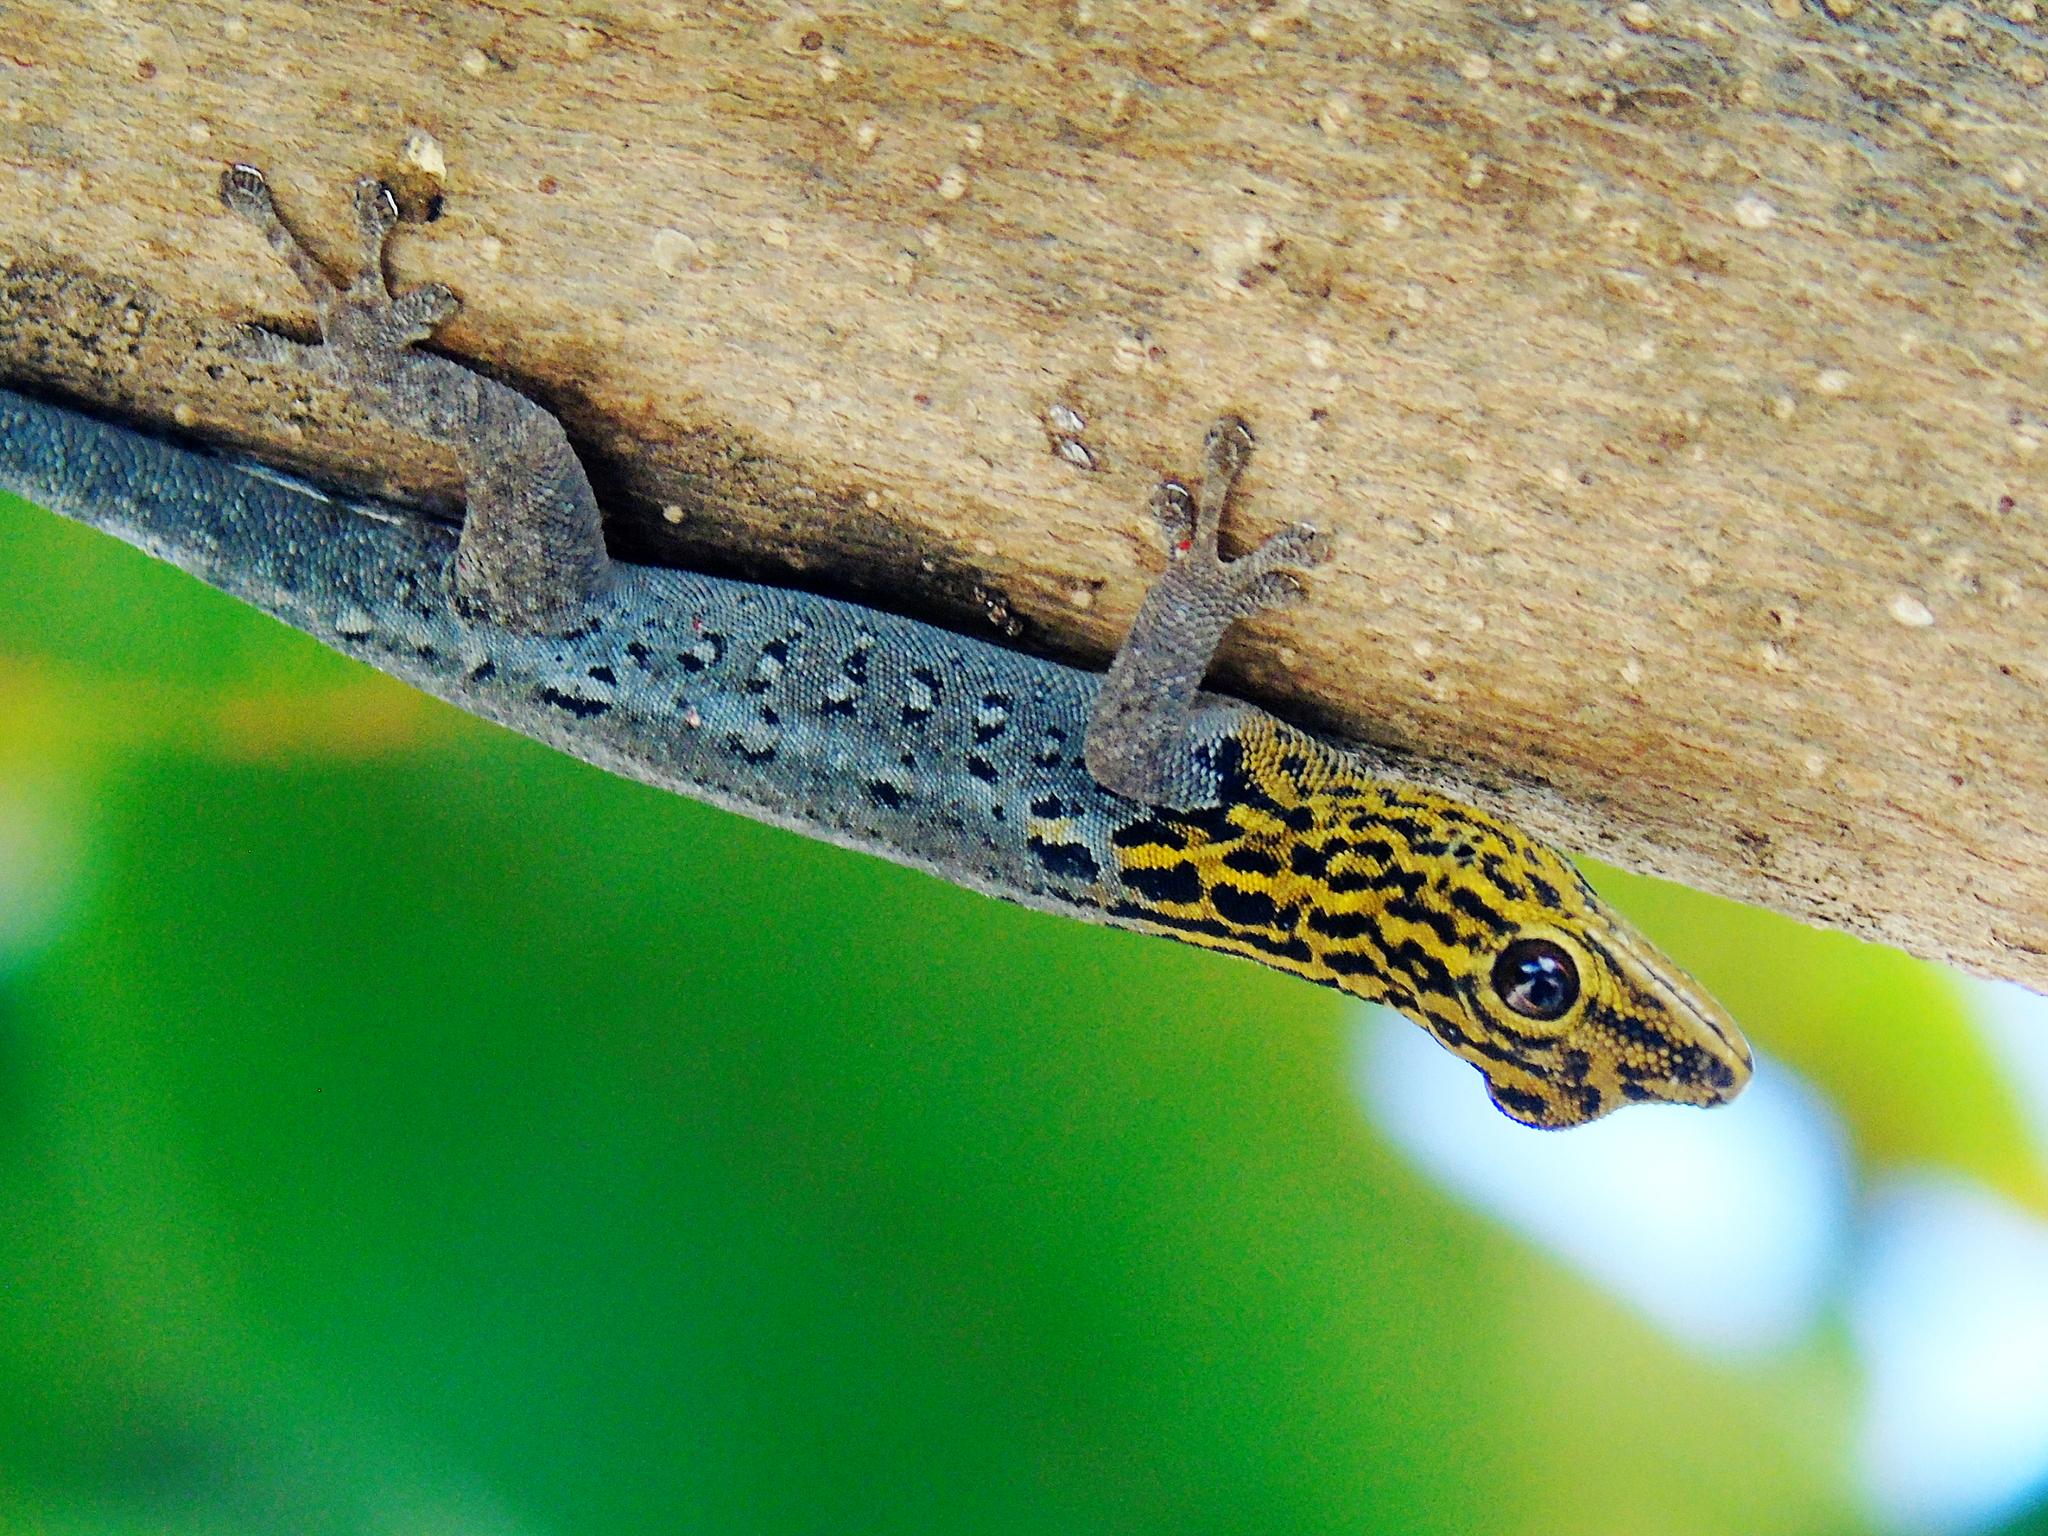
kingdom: Animalia
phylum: Chordata
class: Squamata
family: Gekkonidae
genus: Lygodactylus
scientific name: Lygodactylus picturatus
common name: Painted dwarf gecko
